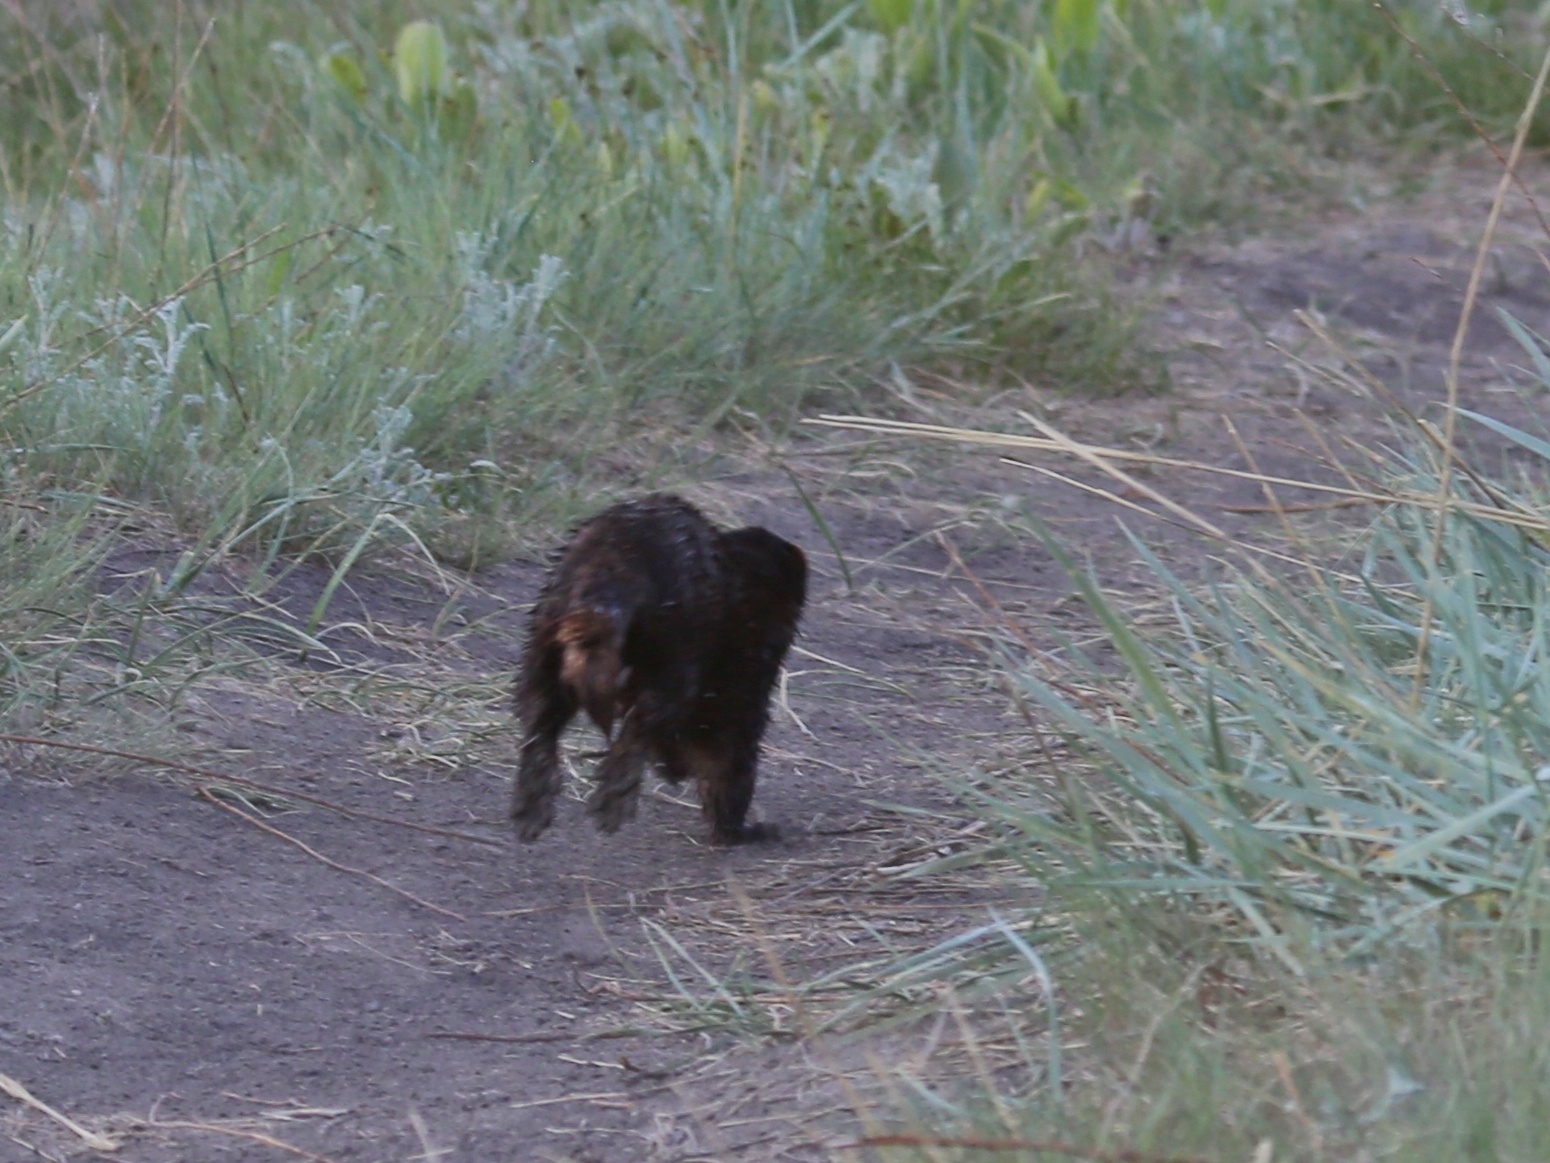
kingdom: Animalia
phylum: Chordata
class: Mammalia
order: Carnivora
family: Mustelidae
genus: Mustela
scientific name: Mustela
